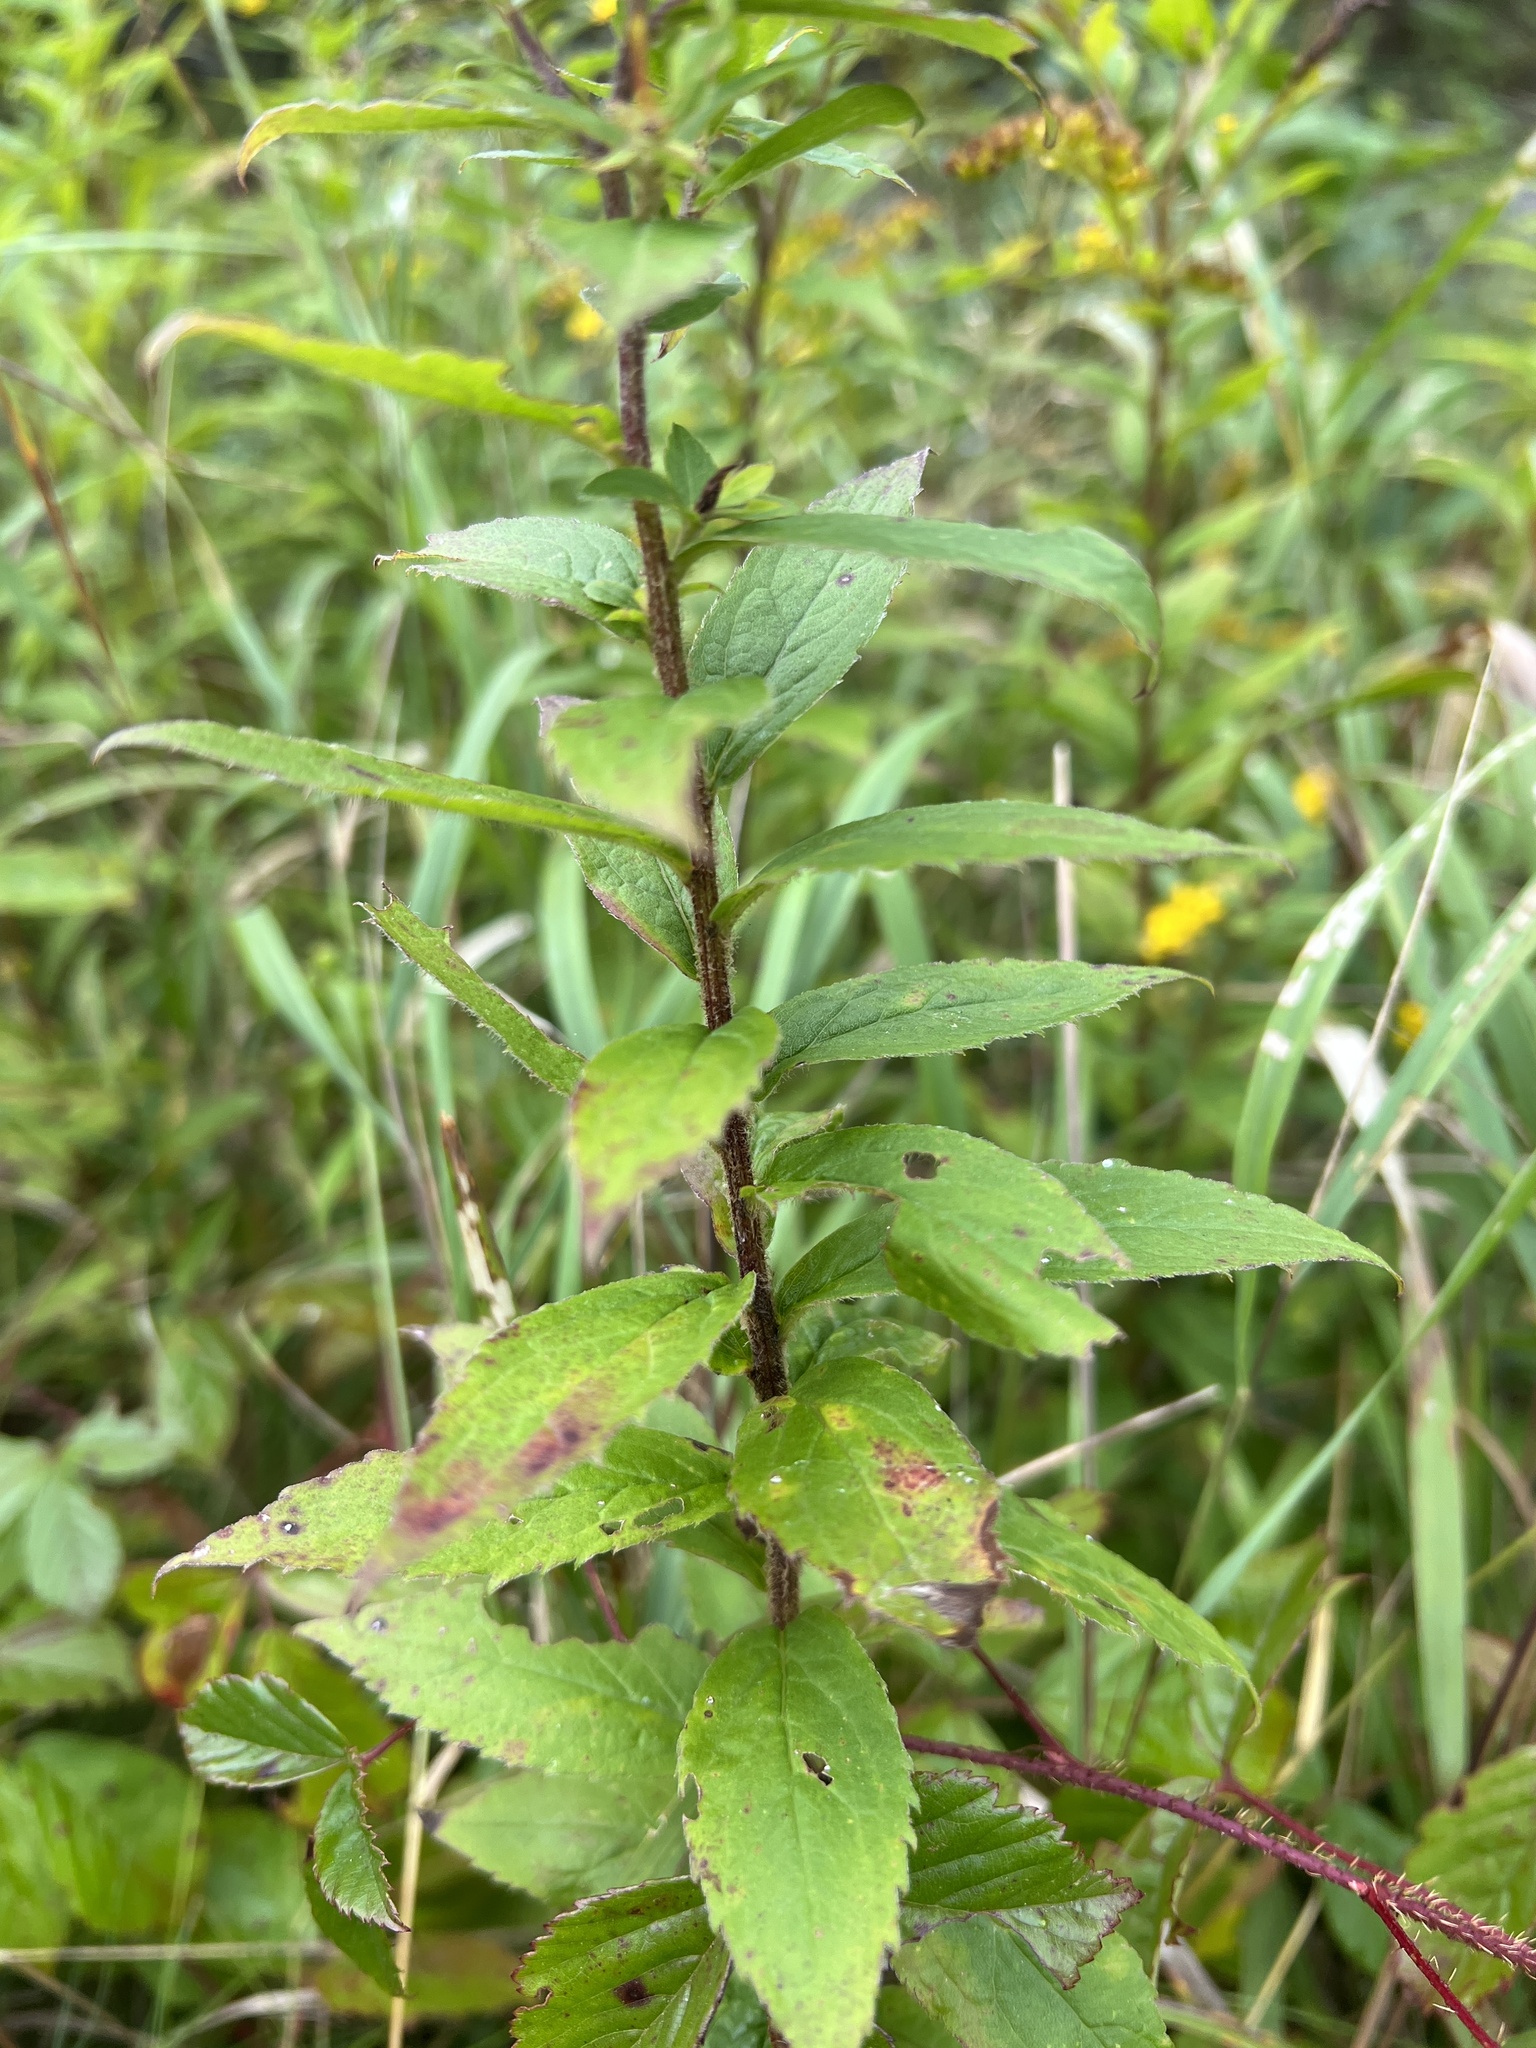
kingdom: Plantae
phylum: Tracheophyta
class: Magnoliopsida
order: Asterales
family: Asteraceae
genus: Solidago
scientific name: Solidago rugosa
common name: Rough-stemmed goldenrod
